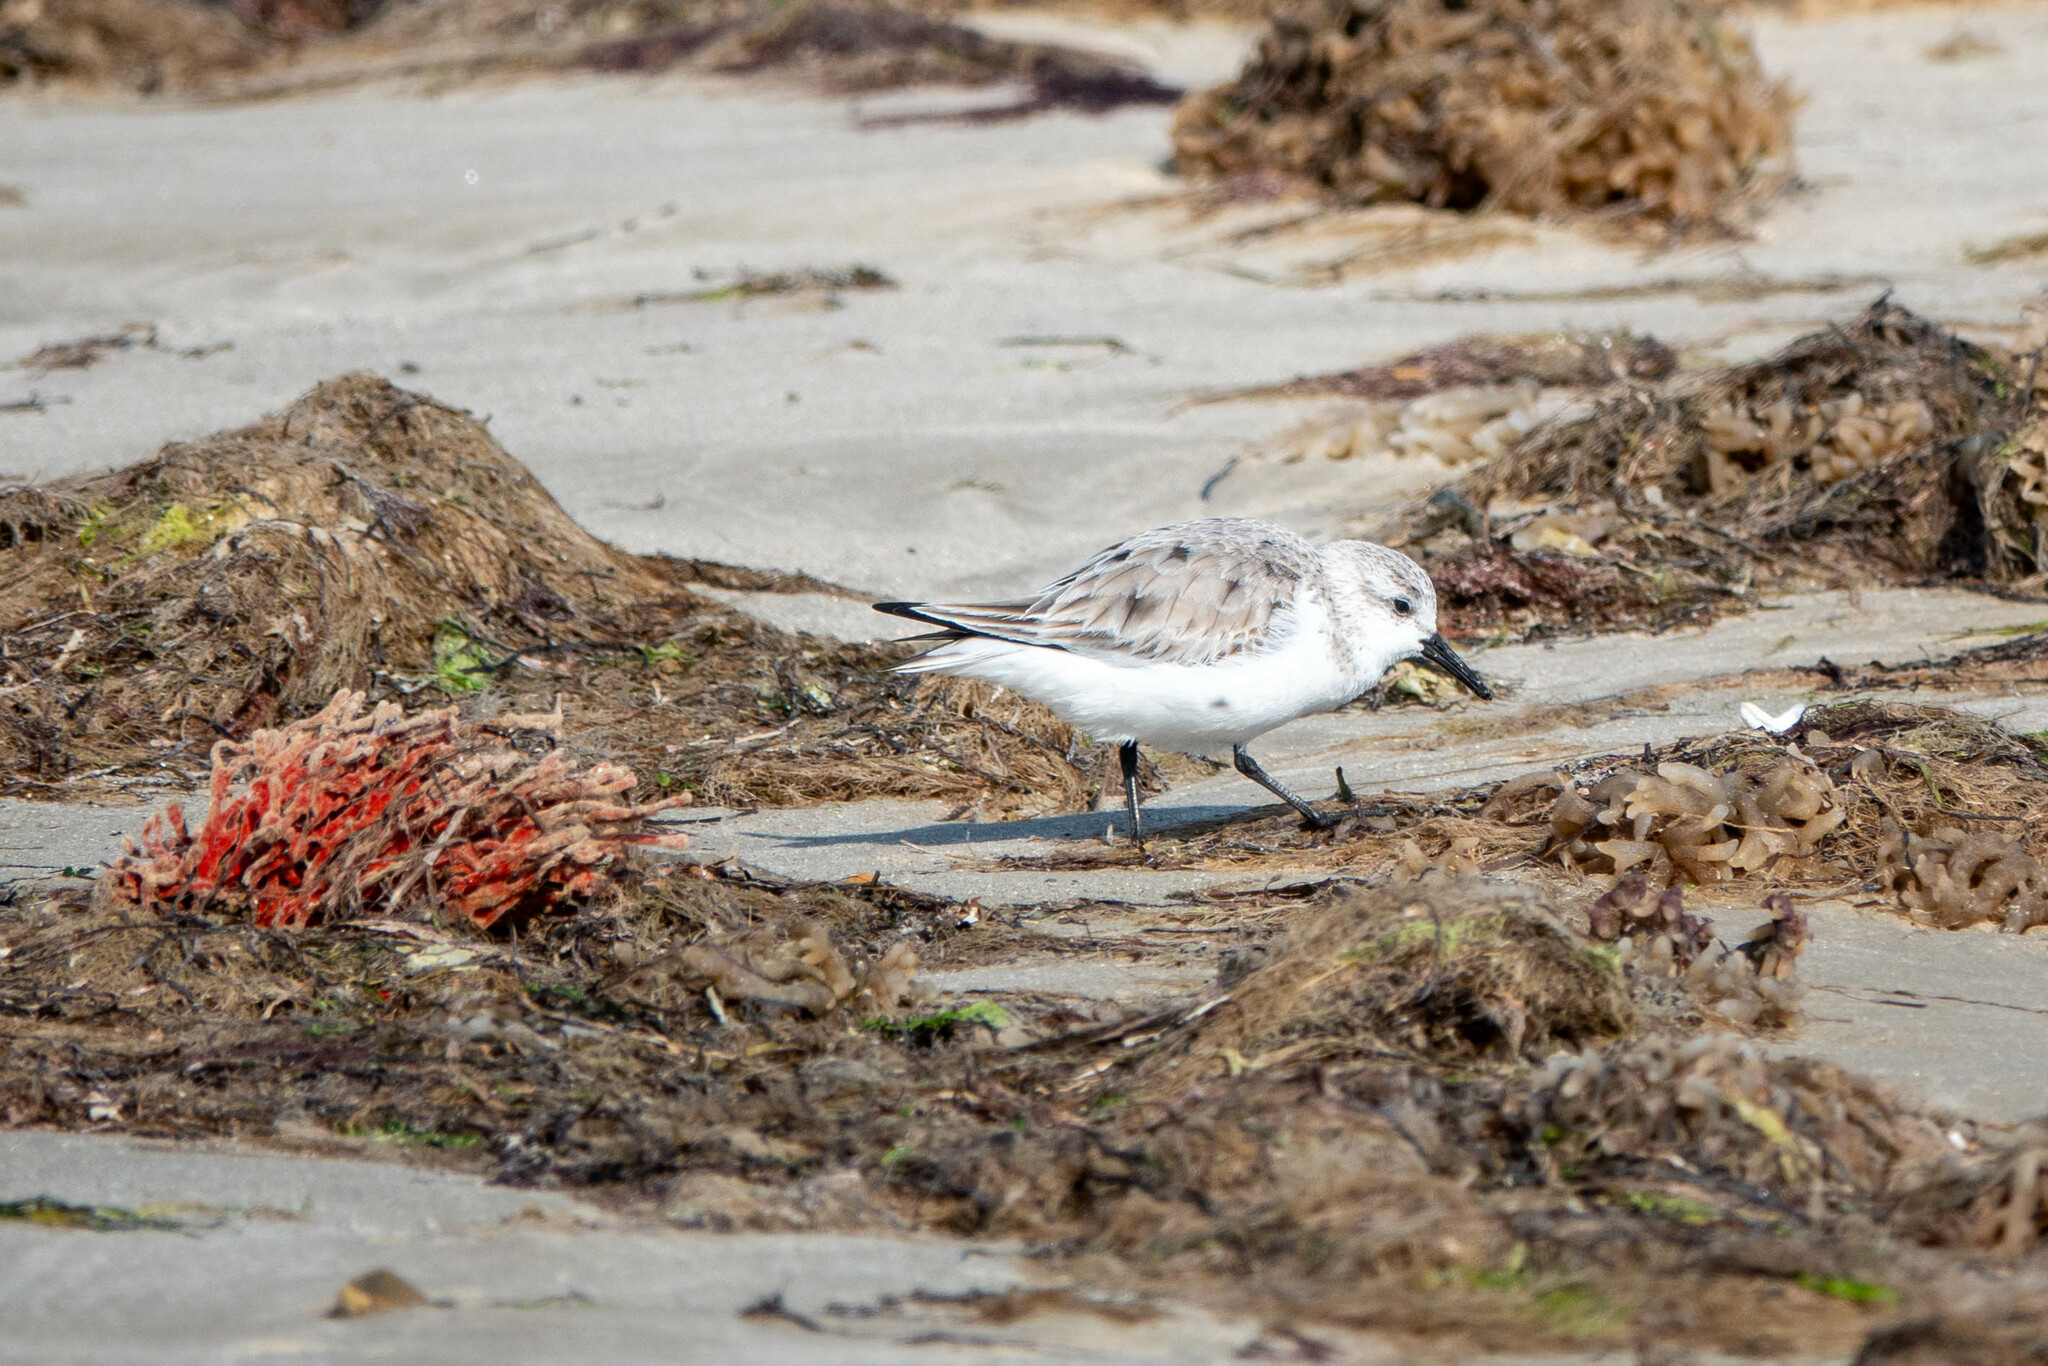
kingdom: Animalia
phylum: Chordata
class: Aves
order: Charadriiformes
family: Scolopacidae
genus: Calidris
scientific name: Calidris alba
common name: Sanderling
